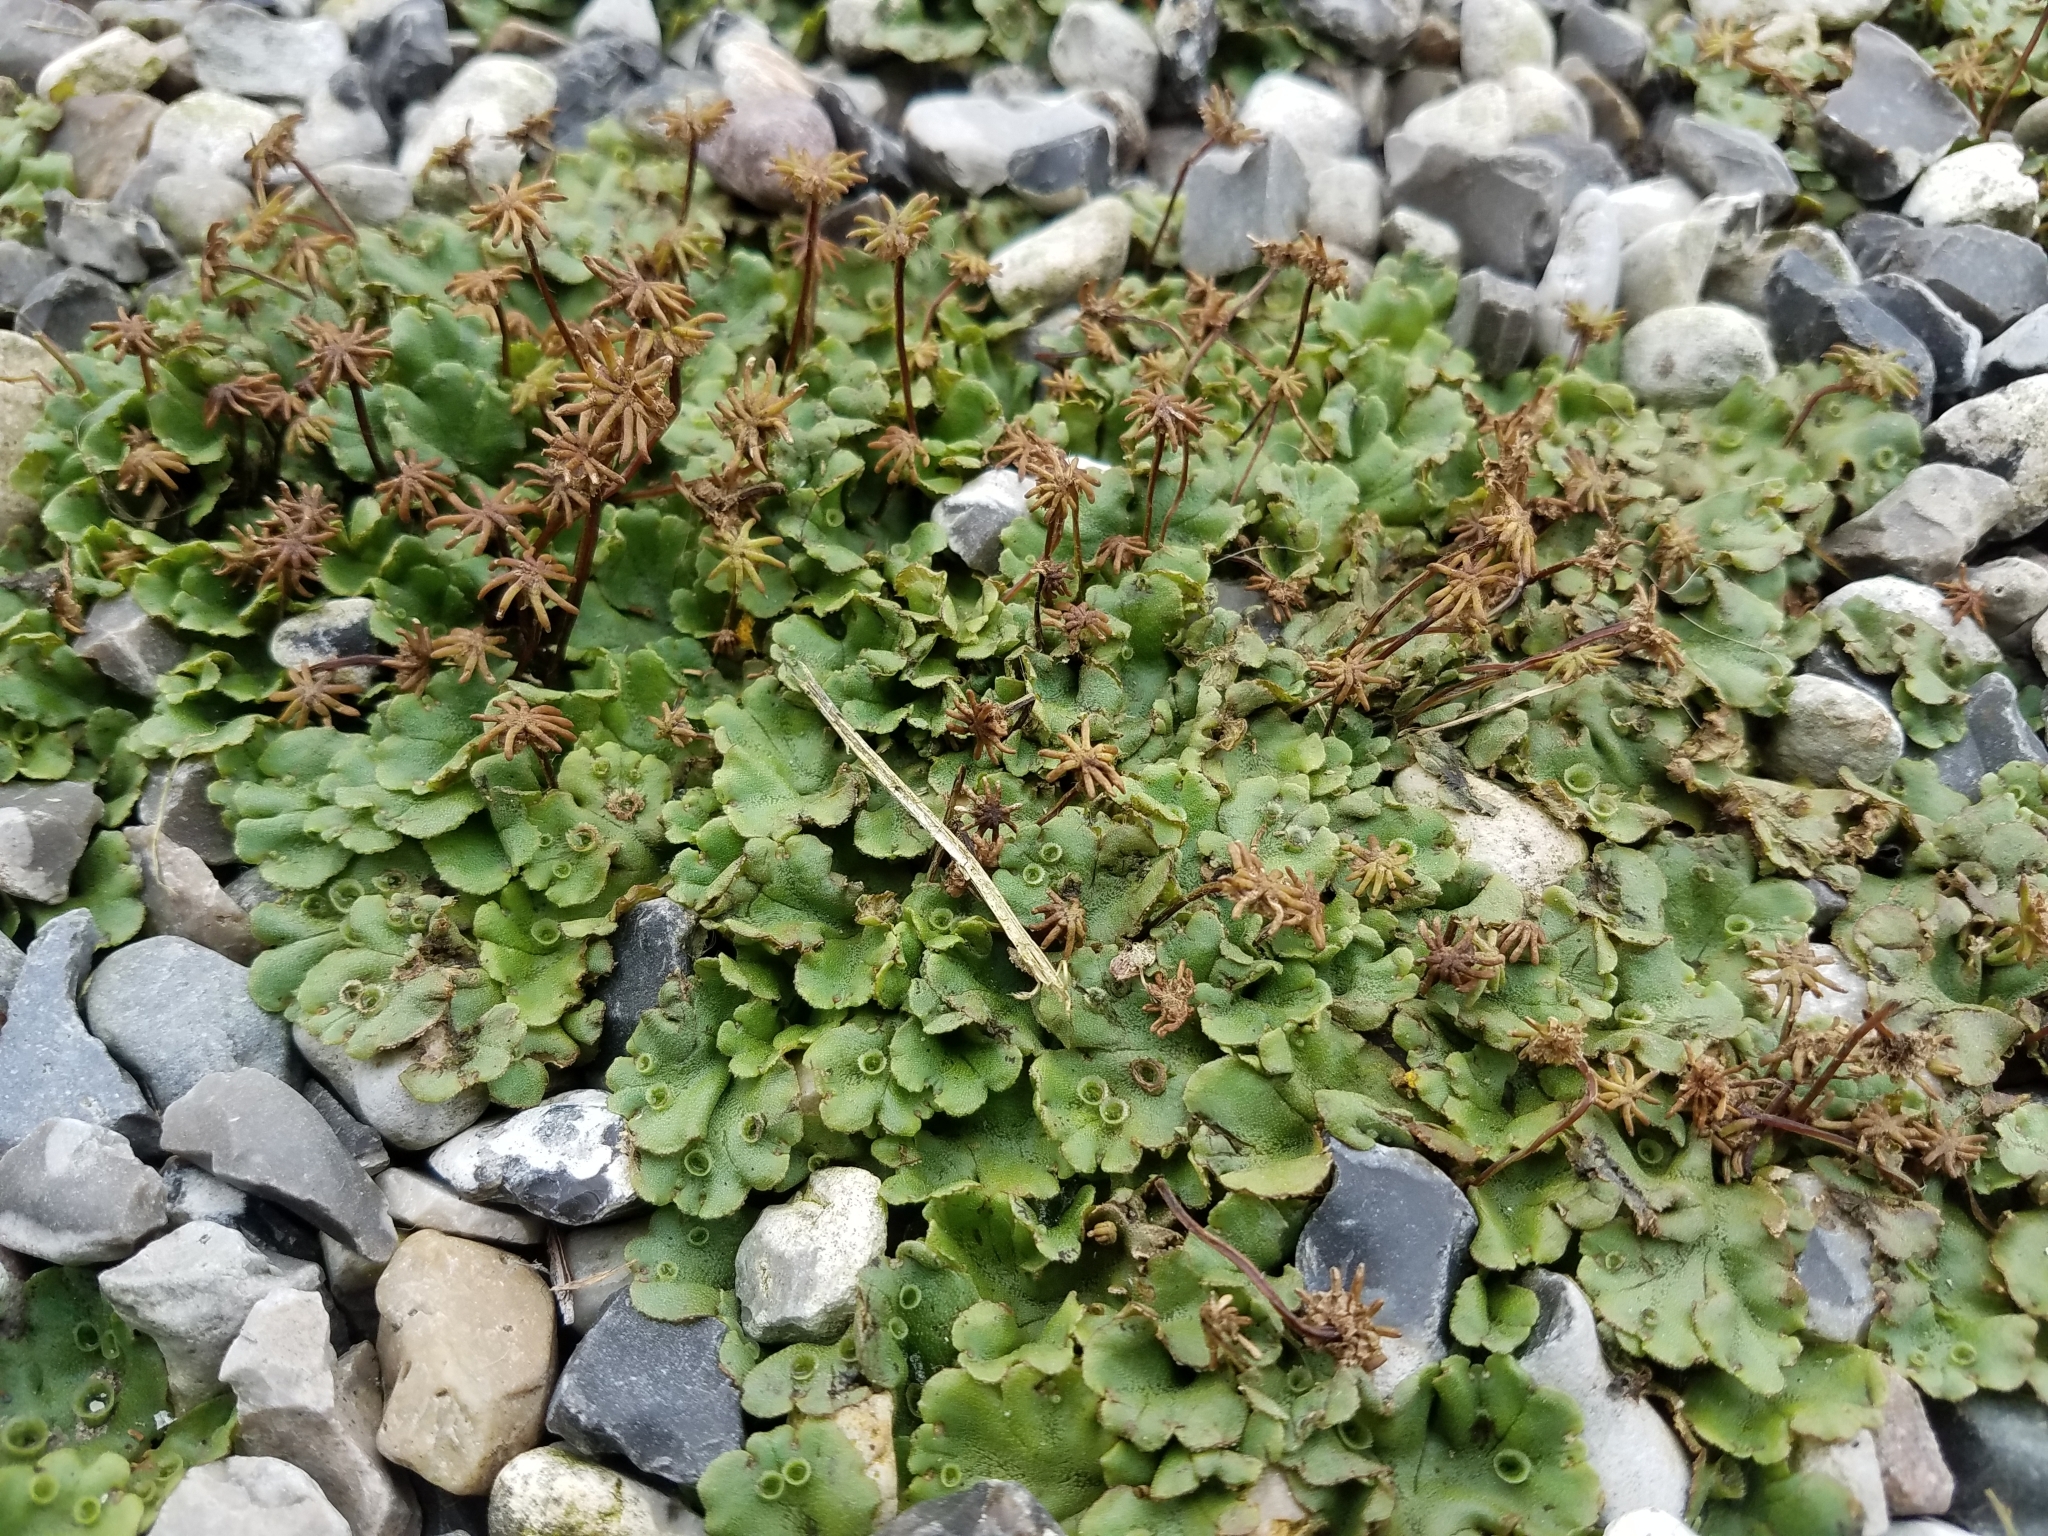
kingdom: Plantae
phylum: Marchantiophyta
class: Marchantiopsida
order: Marchantiales
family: Marchantiaceae
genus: Marchantia
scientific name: Marchantia polymorpha
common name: Common liverwort
